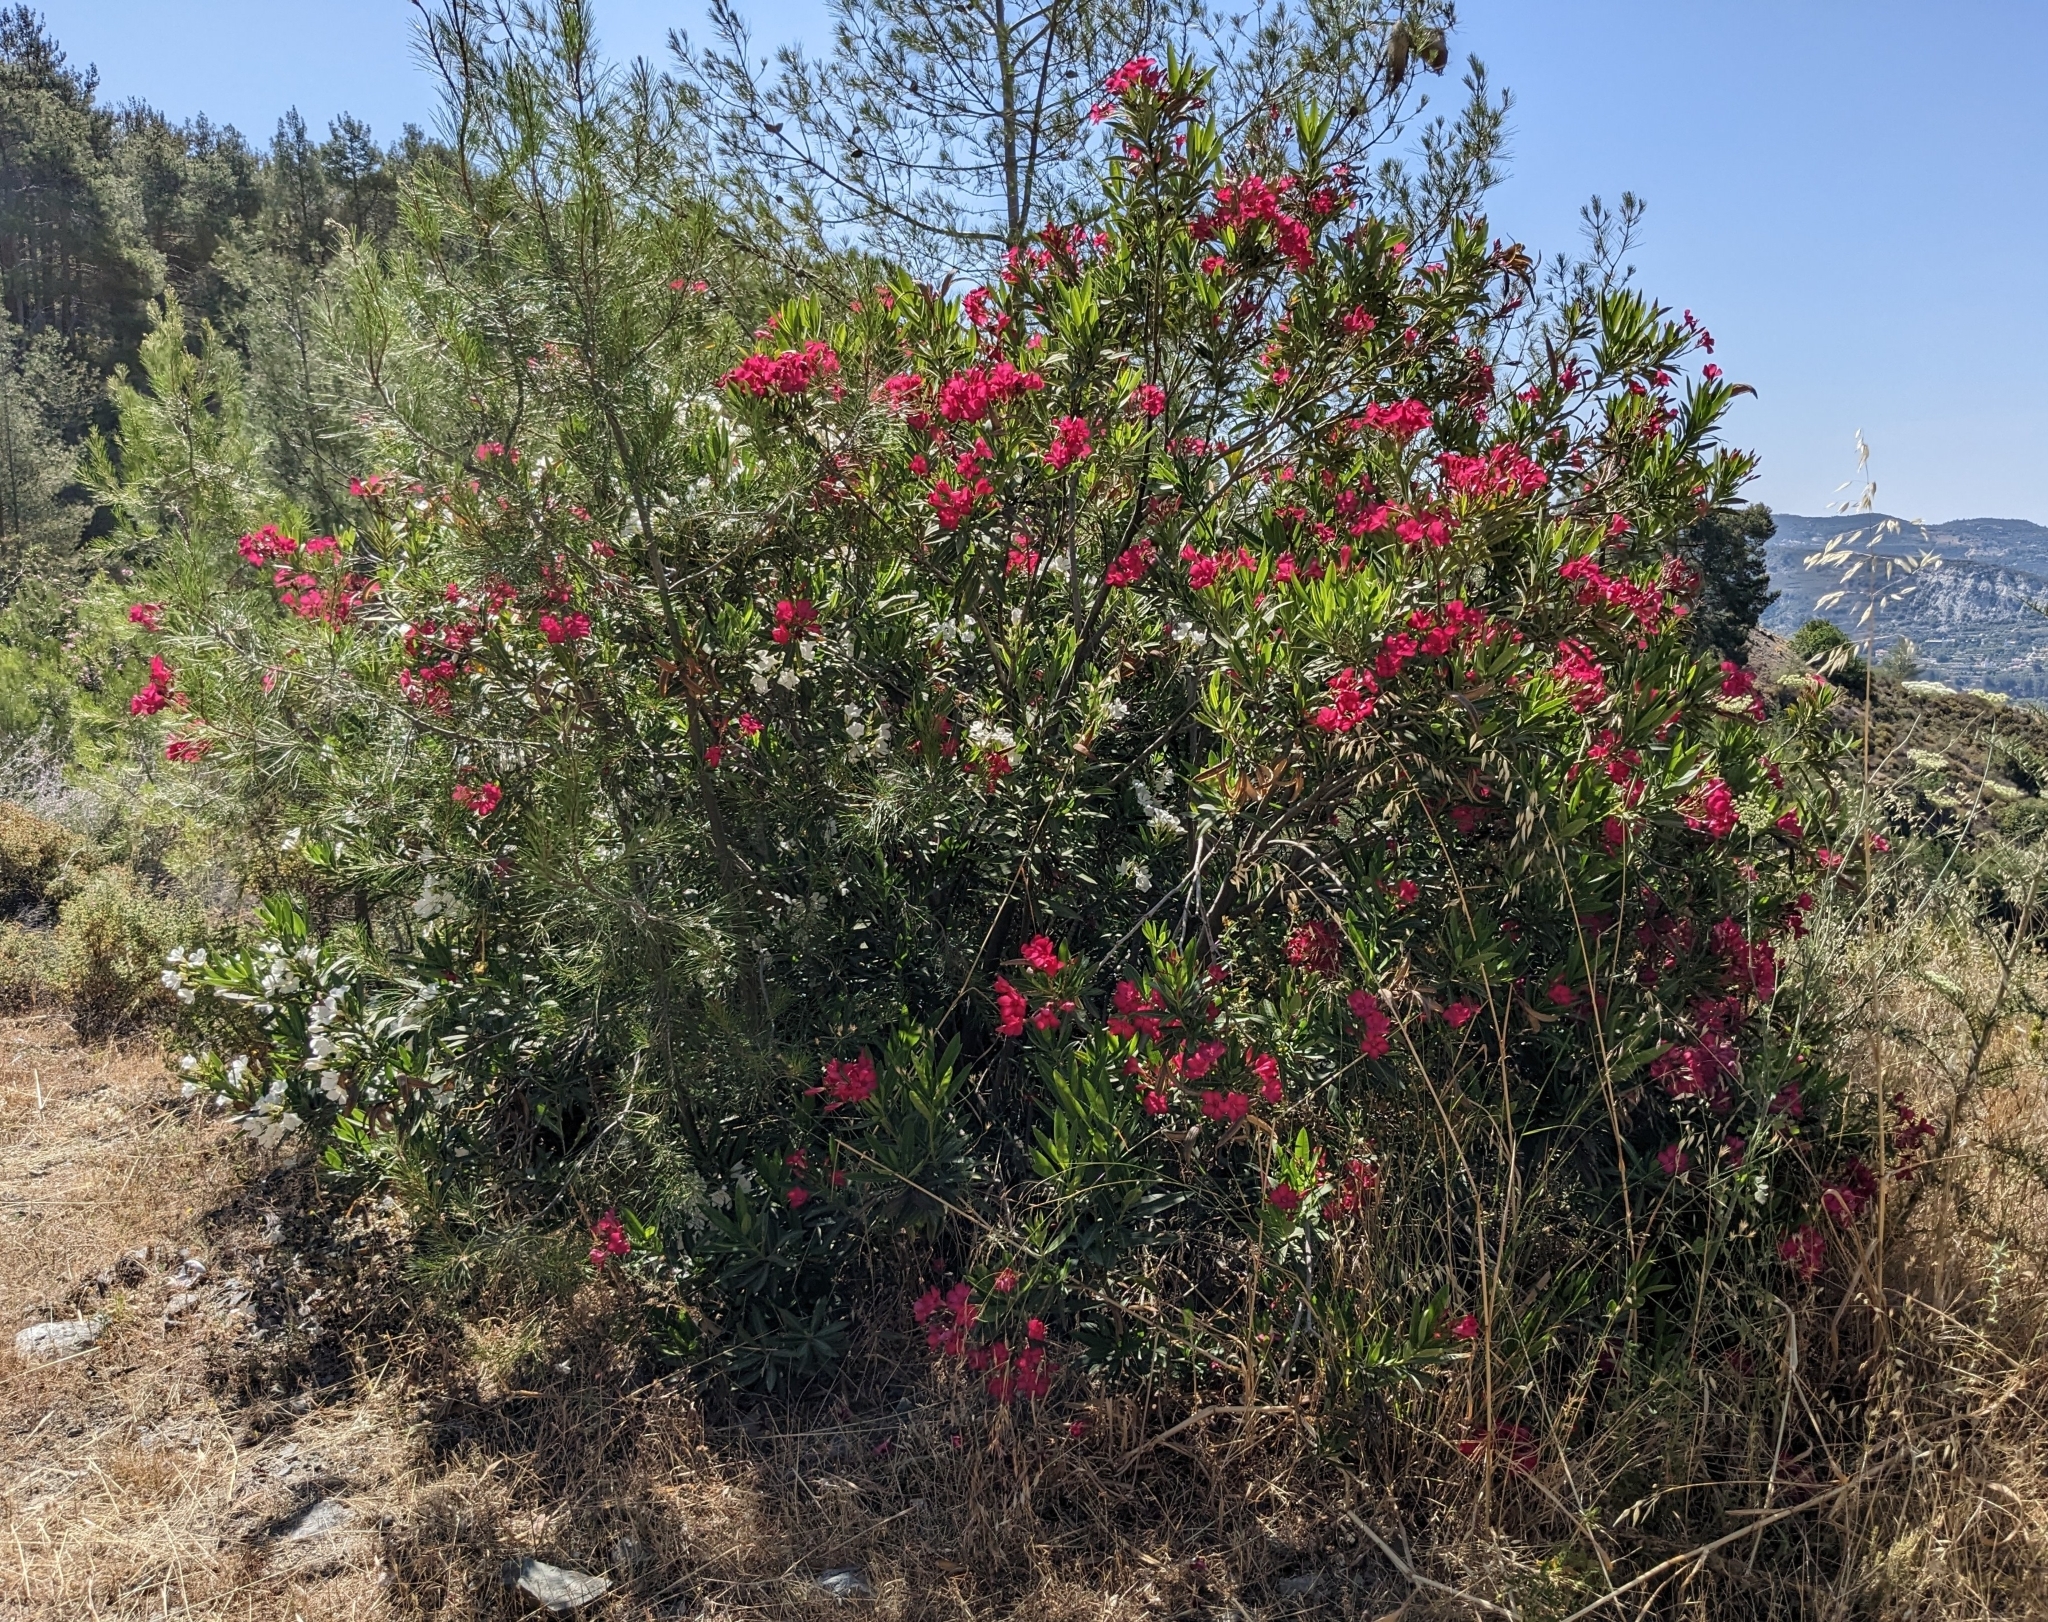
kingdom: Plantae
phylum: Tracheophyta
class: Magnoliopsida
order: Gentianales
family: Apocynaceae
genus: Nerium
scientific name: Nerium oleander
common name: Oleander
